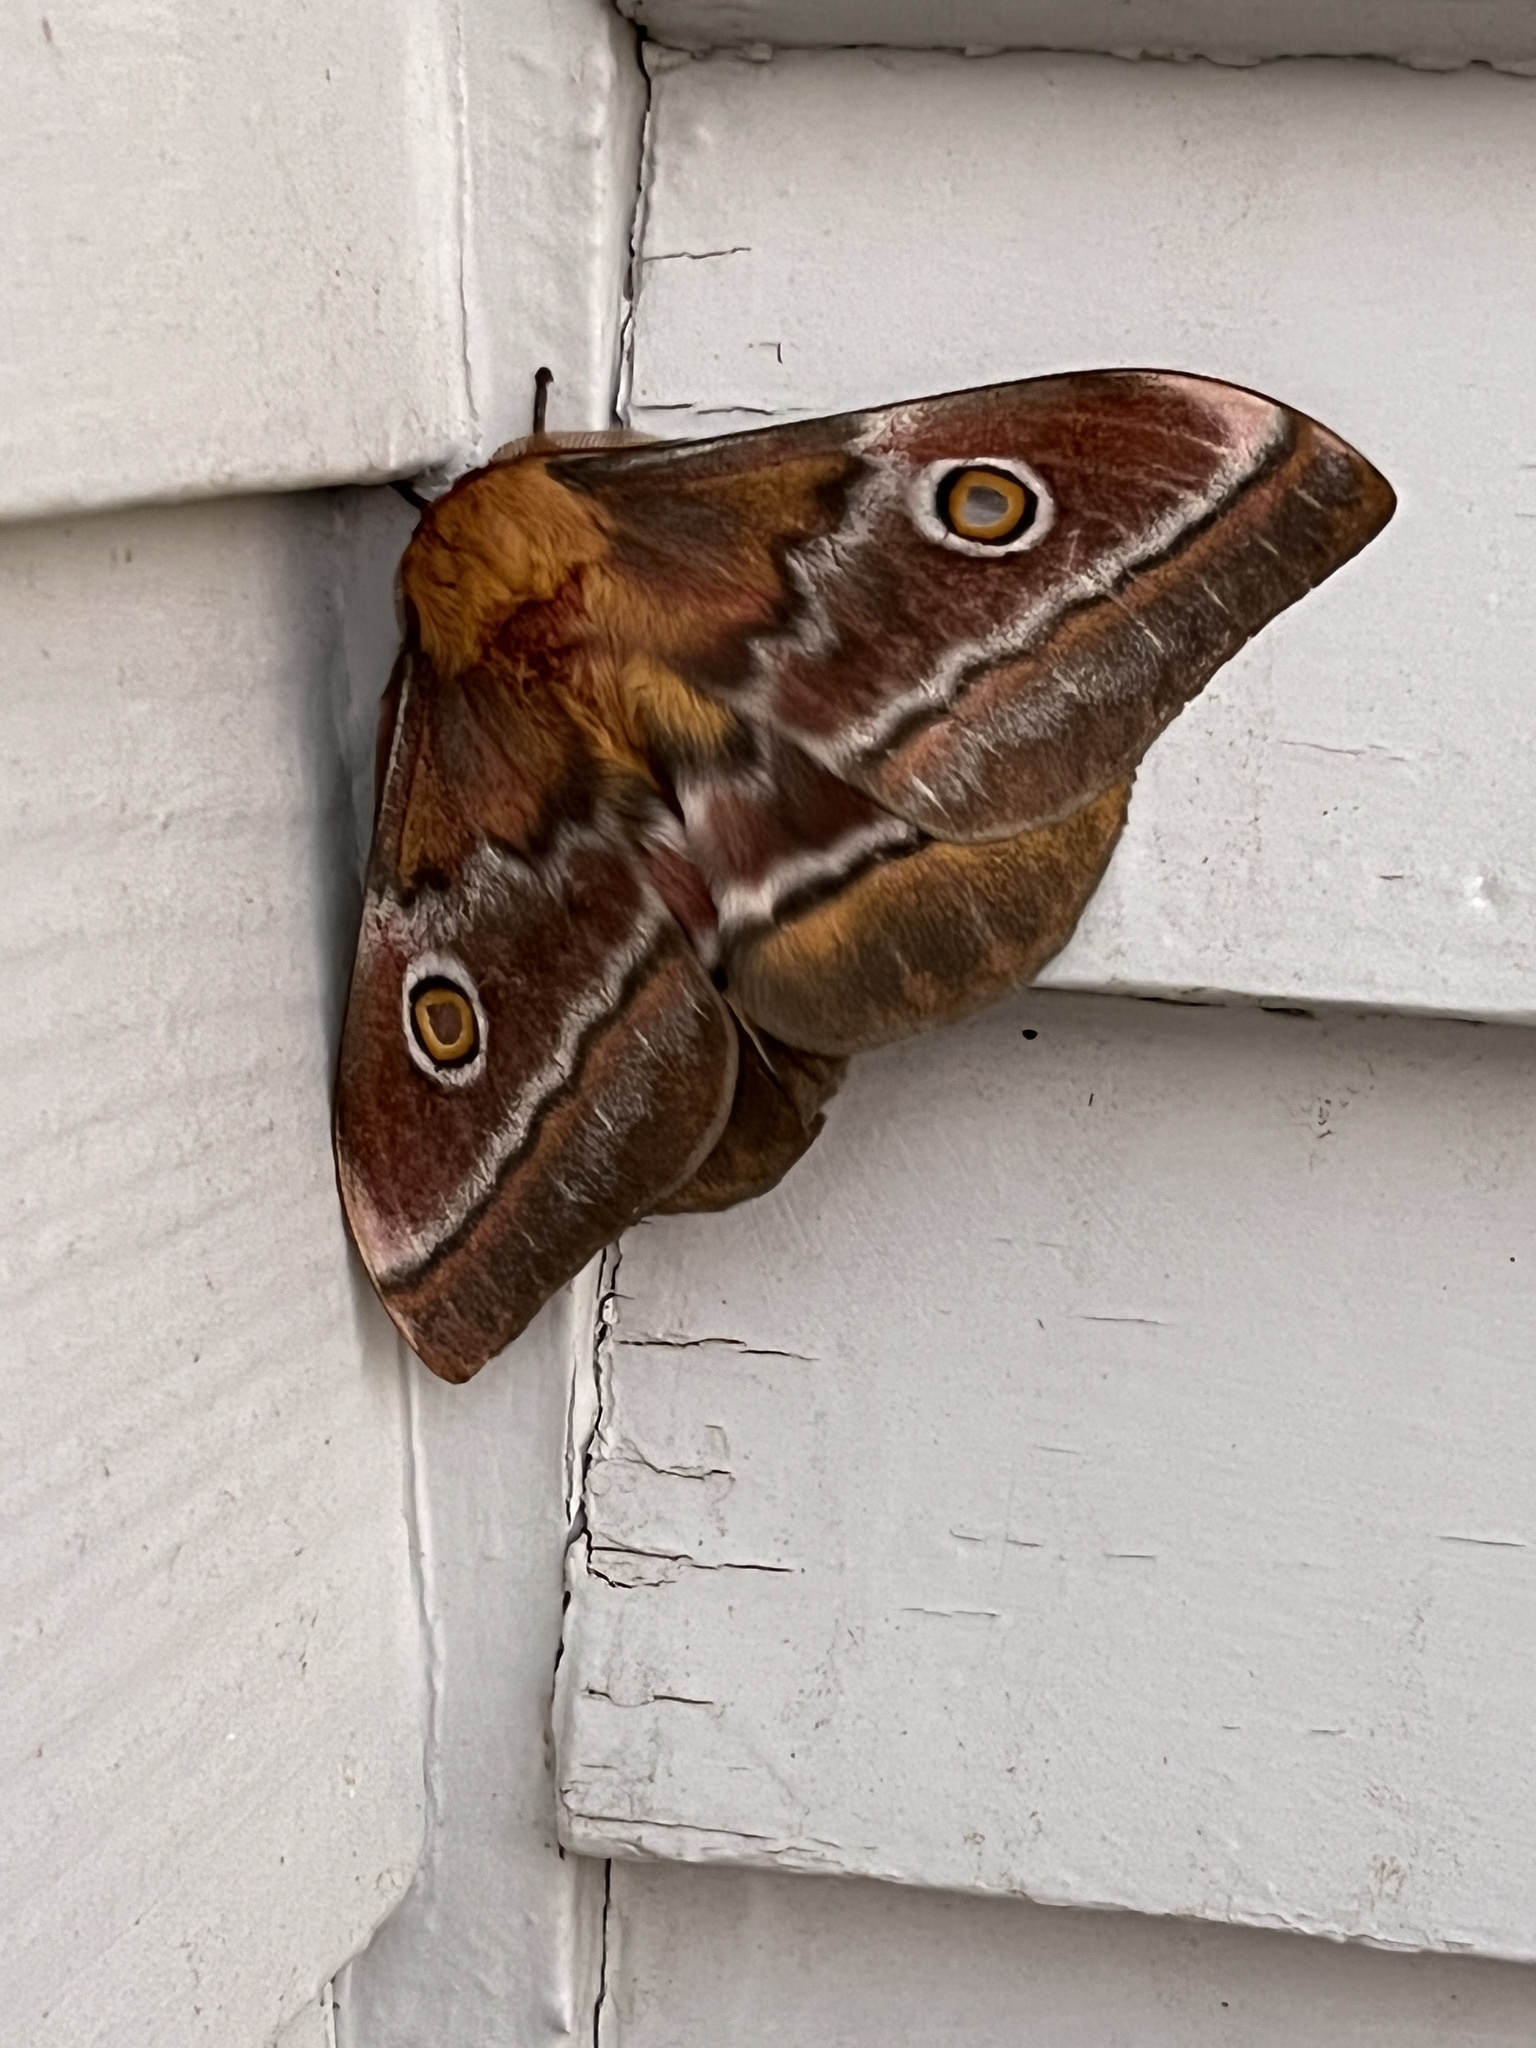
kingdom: Animalia
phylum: Arthropoda
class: Insecta
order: Lepidoptera
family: Saturniidae
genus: Nudaurelia
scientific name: Nudaurelia cytherea
